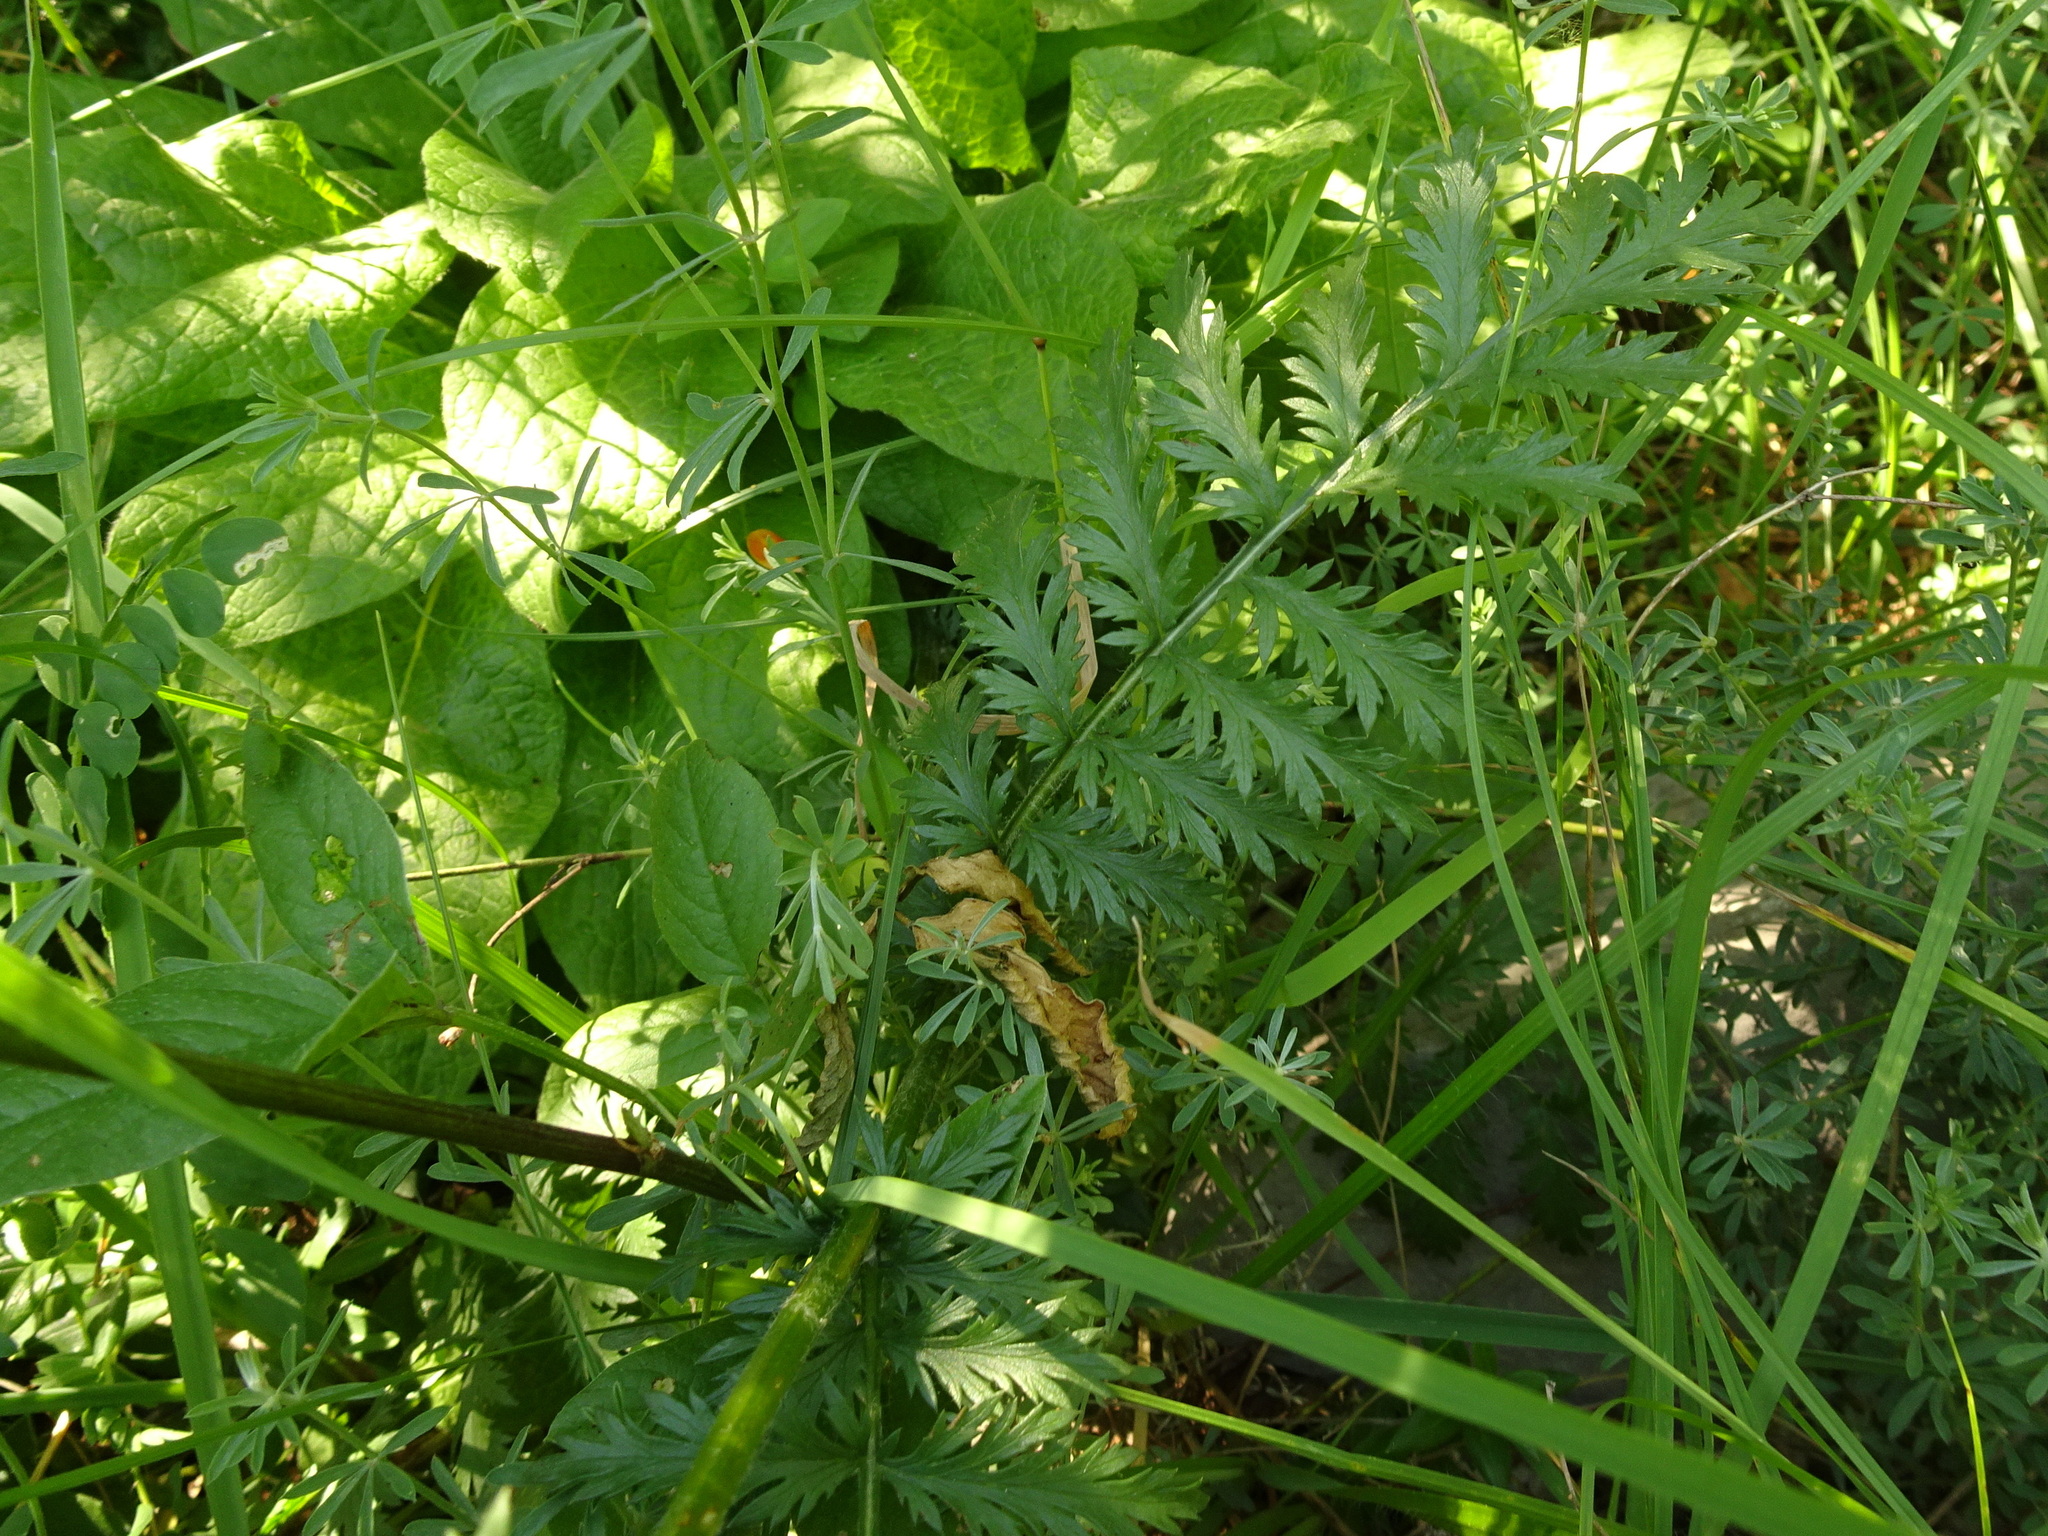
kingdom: Plantae
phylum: Tracheophyta
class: Magnoliopsida
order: Asterales
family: Asteraceae
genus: Tanacetum
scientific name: Tanacetum corymbosum
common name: Scentless feverfew
